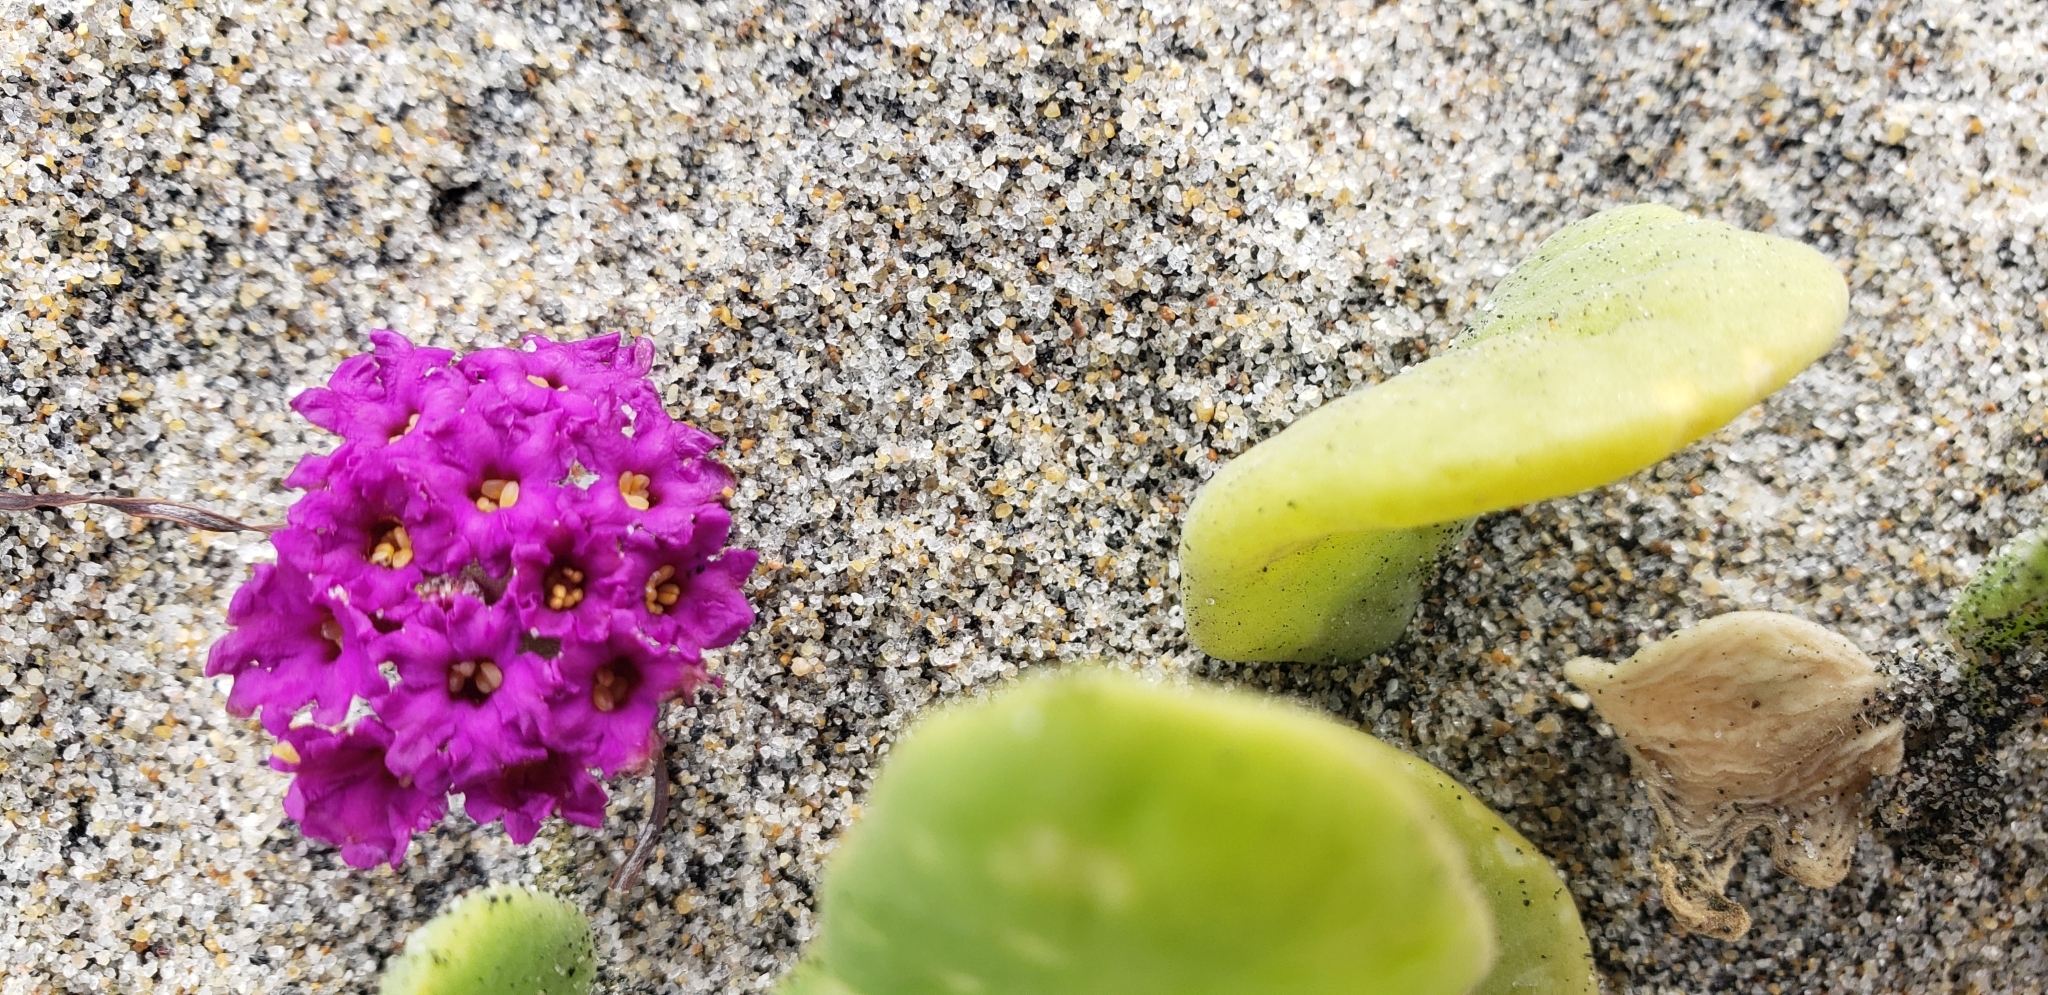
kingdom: Plantae
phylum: Tracheophyta
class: Magnoliopsida
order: Caryophyllales
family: Nyctaginaceae
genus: Abronia
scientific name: Abronia maritima
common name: Red sand-verbena
